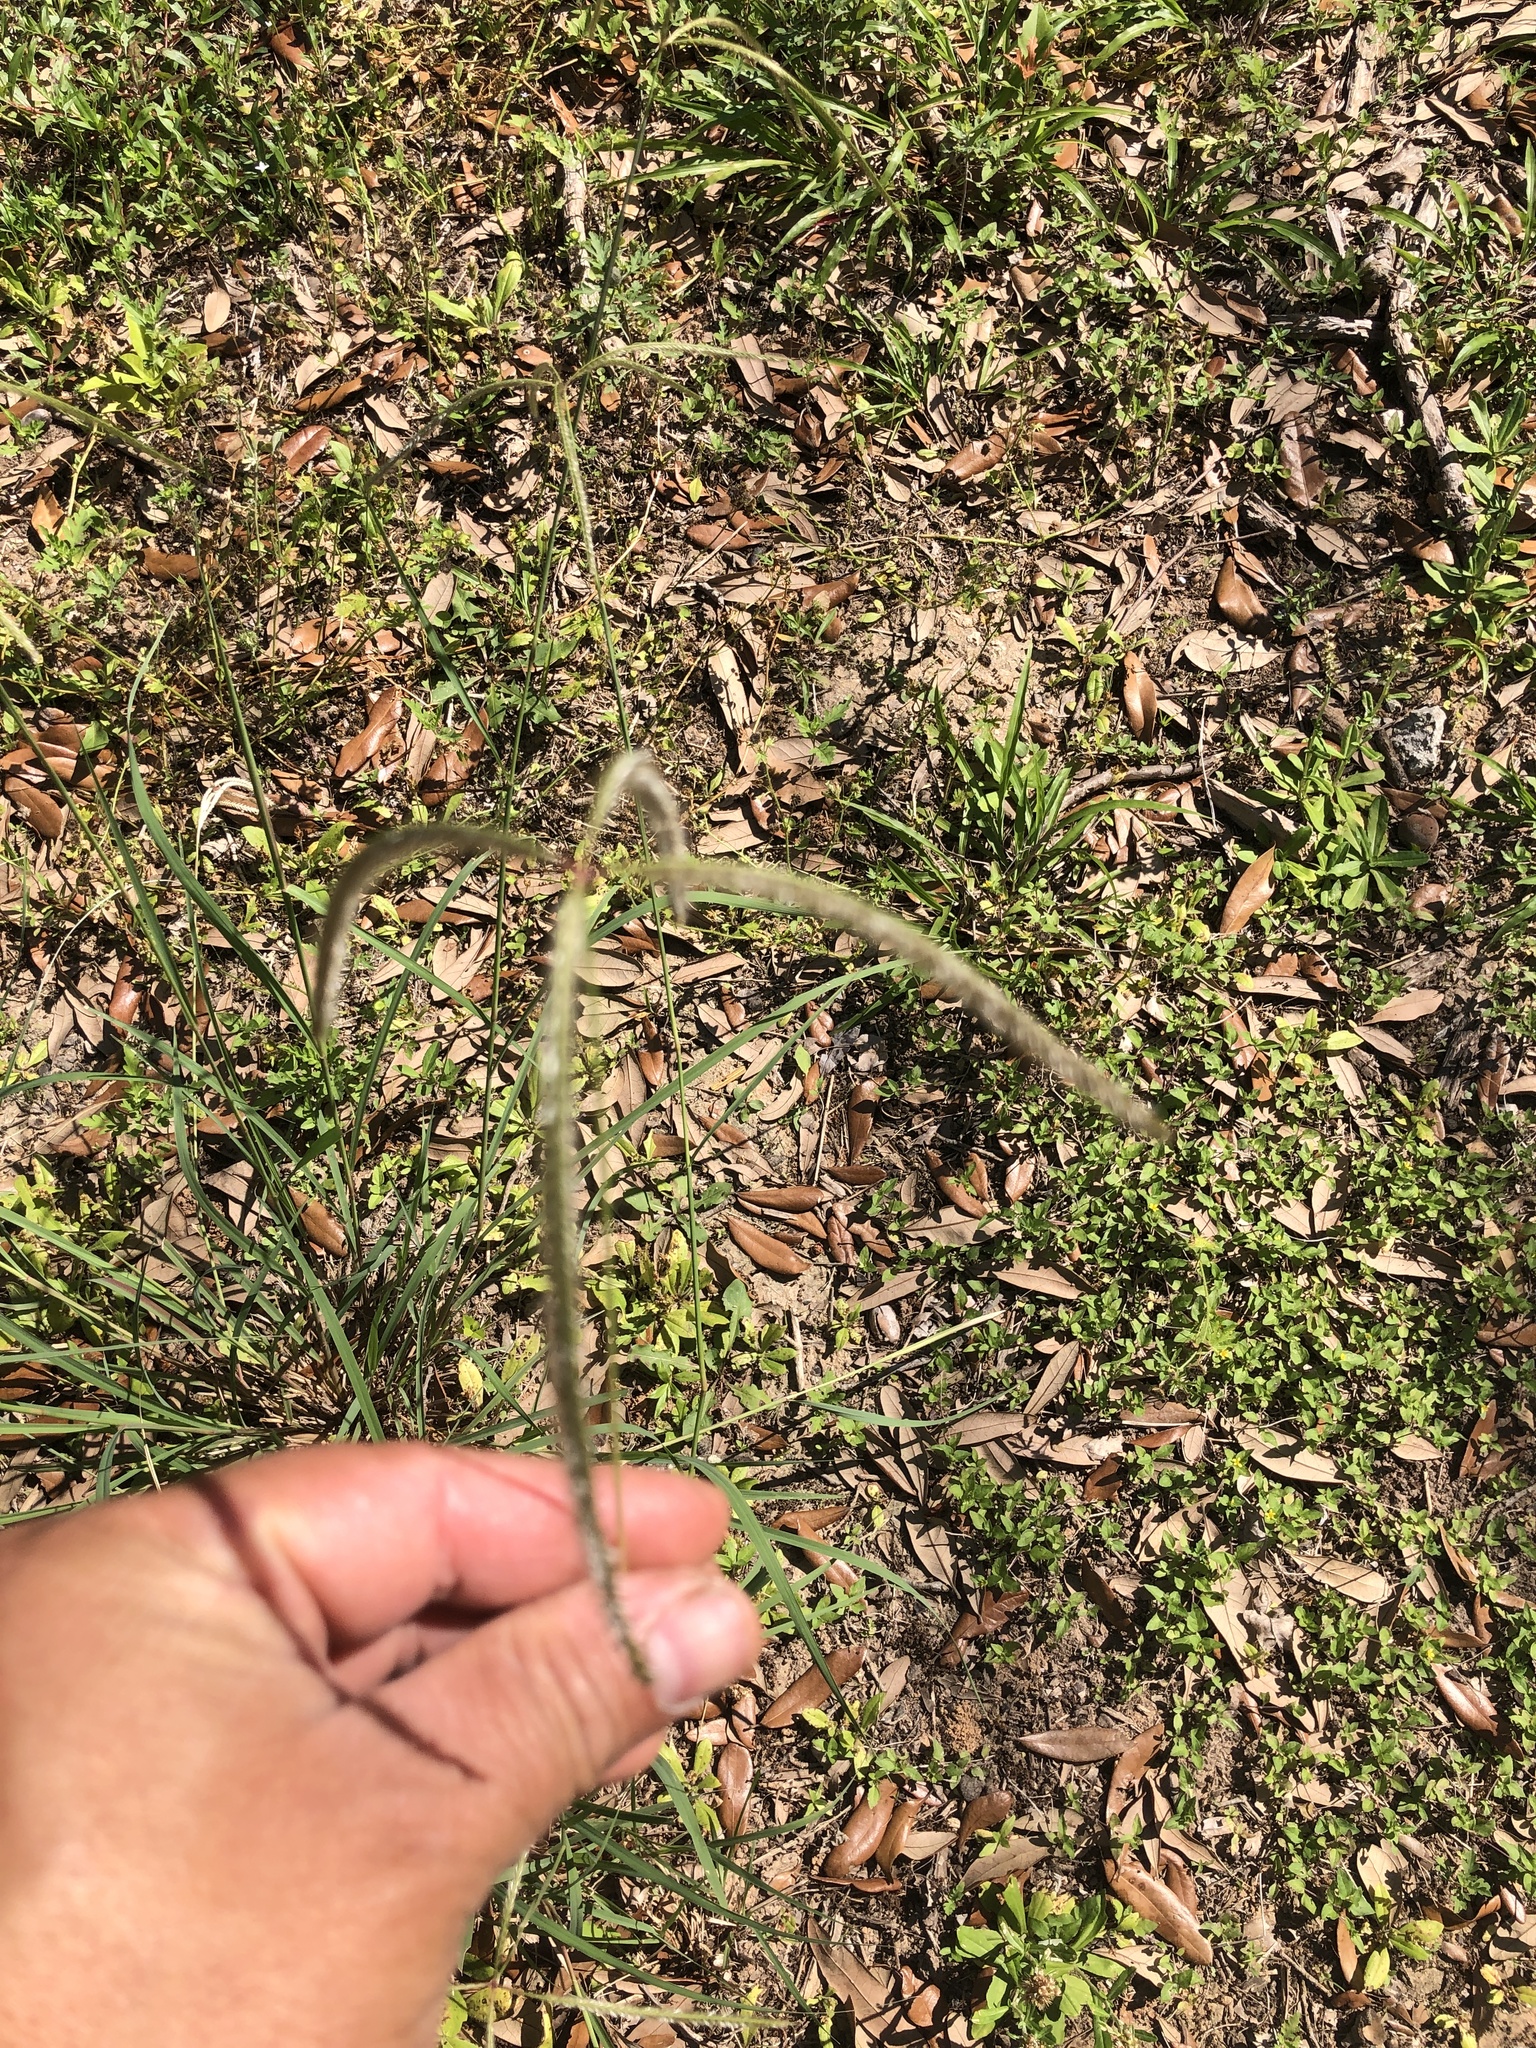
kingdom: Plantae
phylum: Tracheophyta
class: Liliopsida
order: Poales
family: Poaceae
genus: Stapfochloa
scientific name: Stapfochloa canterae
